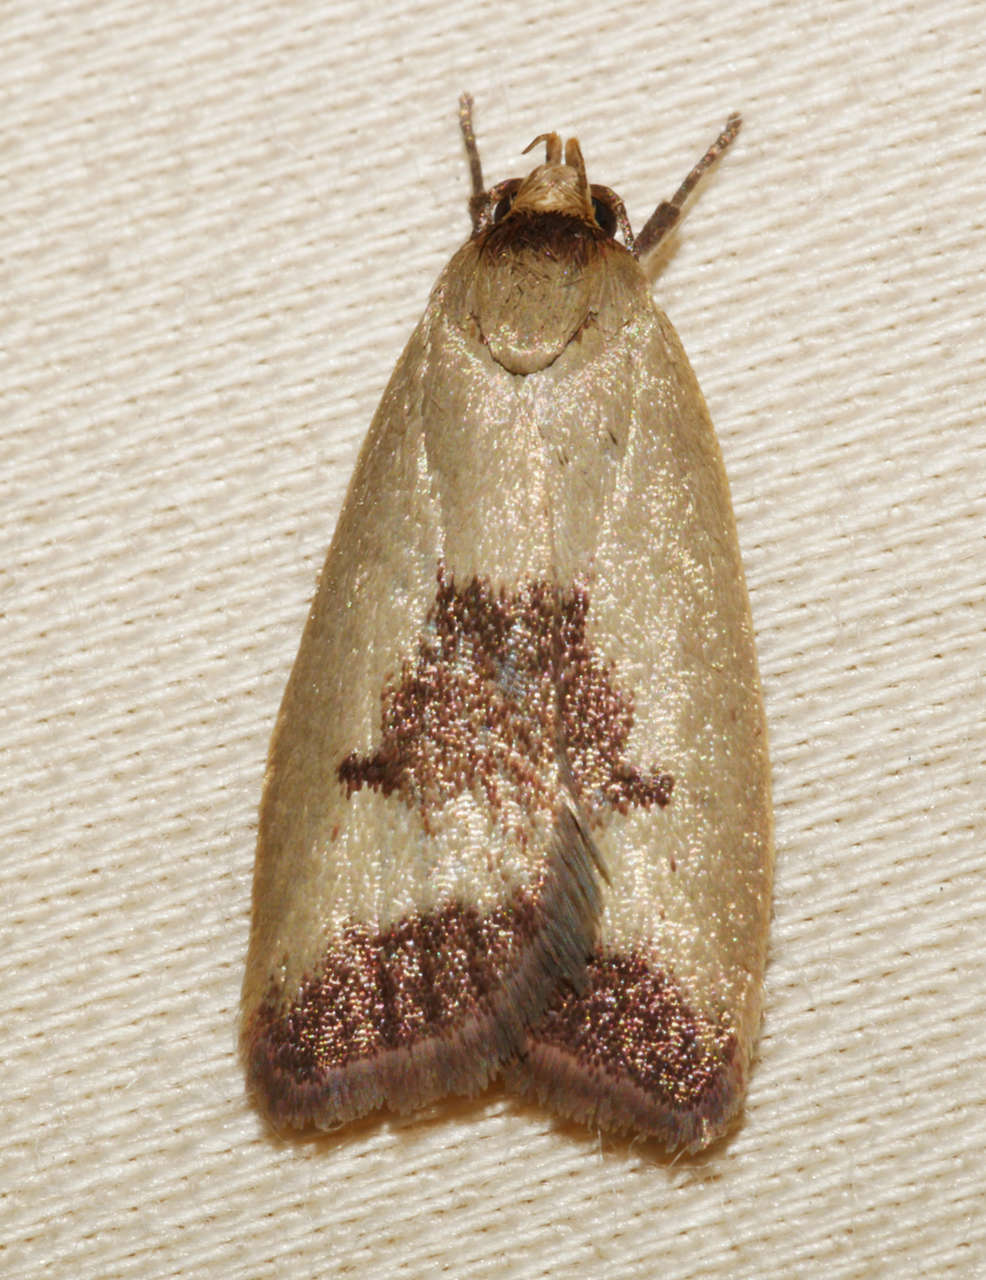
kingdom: Animalia
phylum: Arthropoda
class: Insecta
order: Lepidoptera
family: Oecophoridae
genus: Ageletha
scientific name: Ageletha hemiteles
